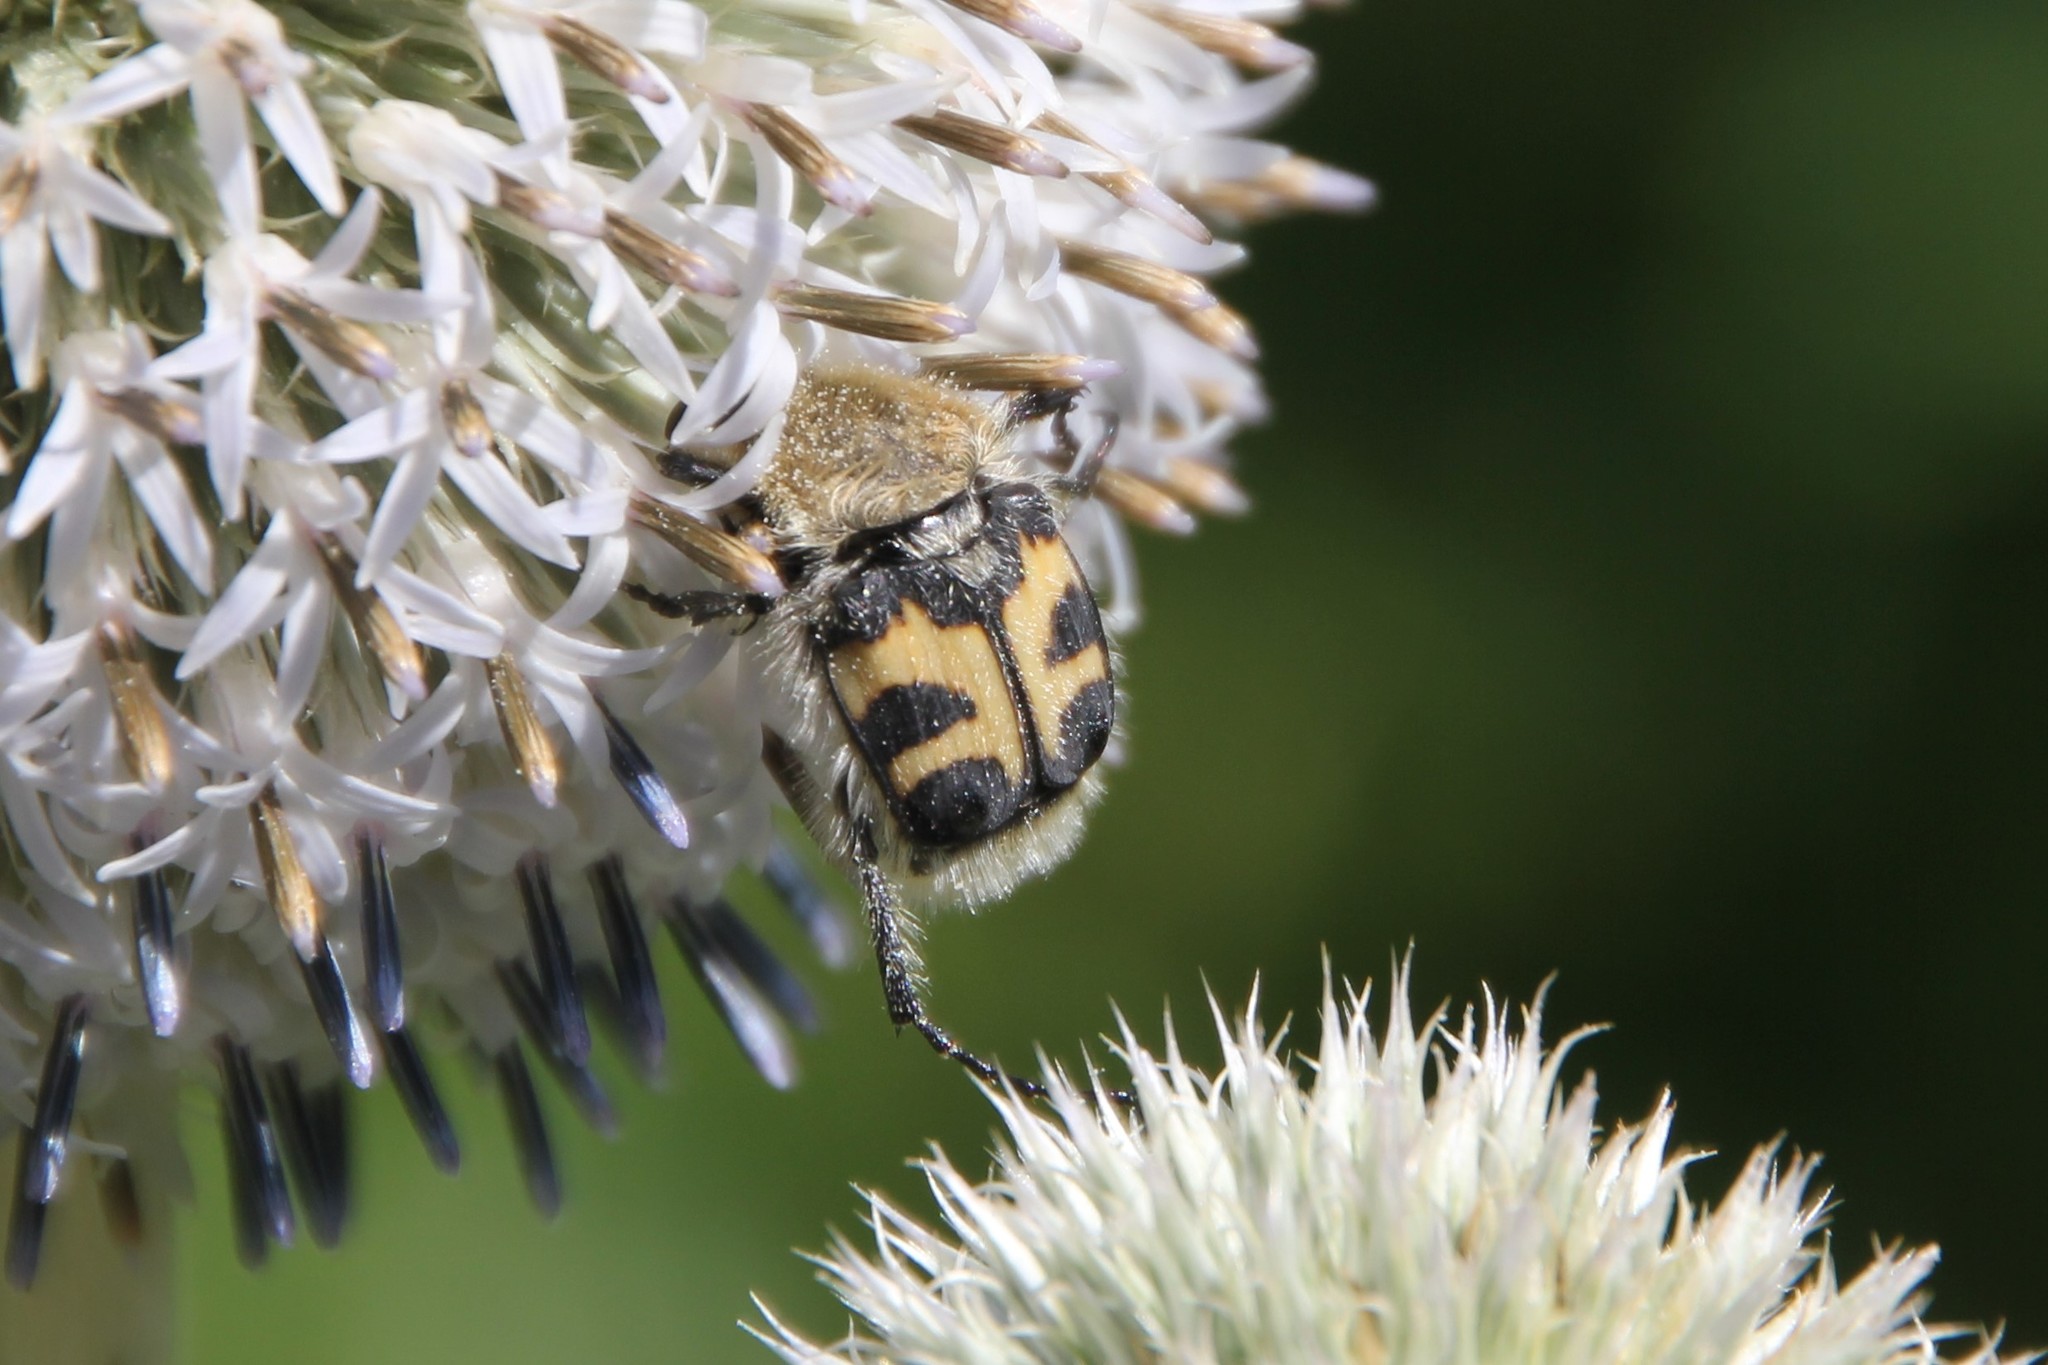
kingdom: Animalia
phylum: Arthropoda
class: Insecta
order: Coleoptera
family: Scarabaeidae
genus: Trichius
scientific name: Trichius fasciatus
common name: Bee beetle
